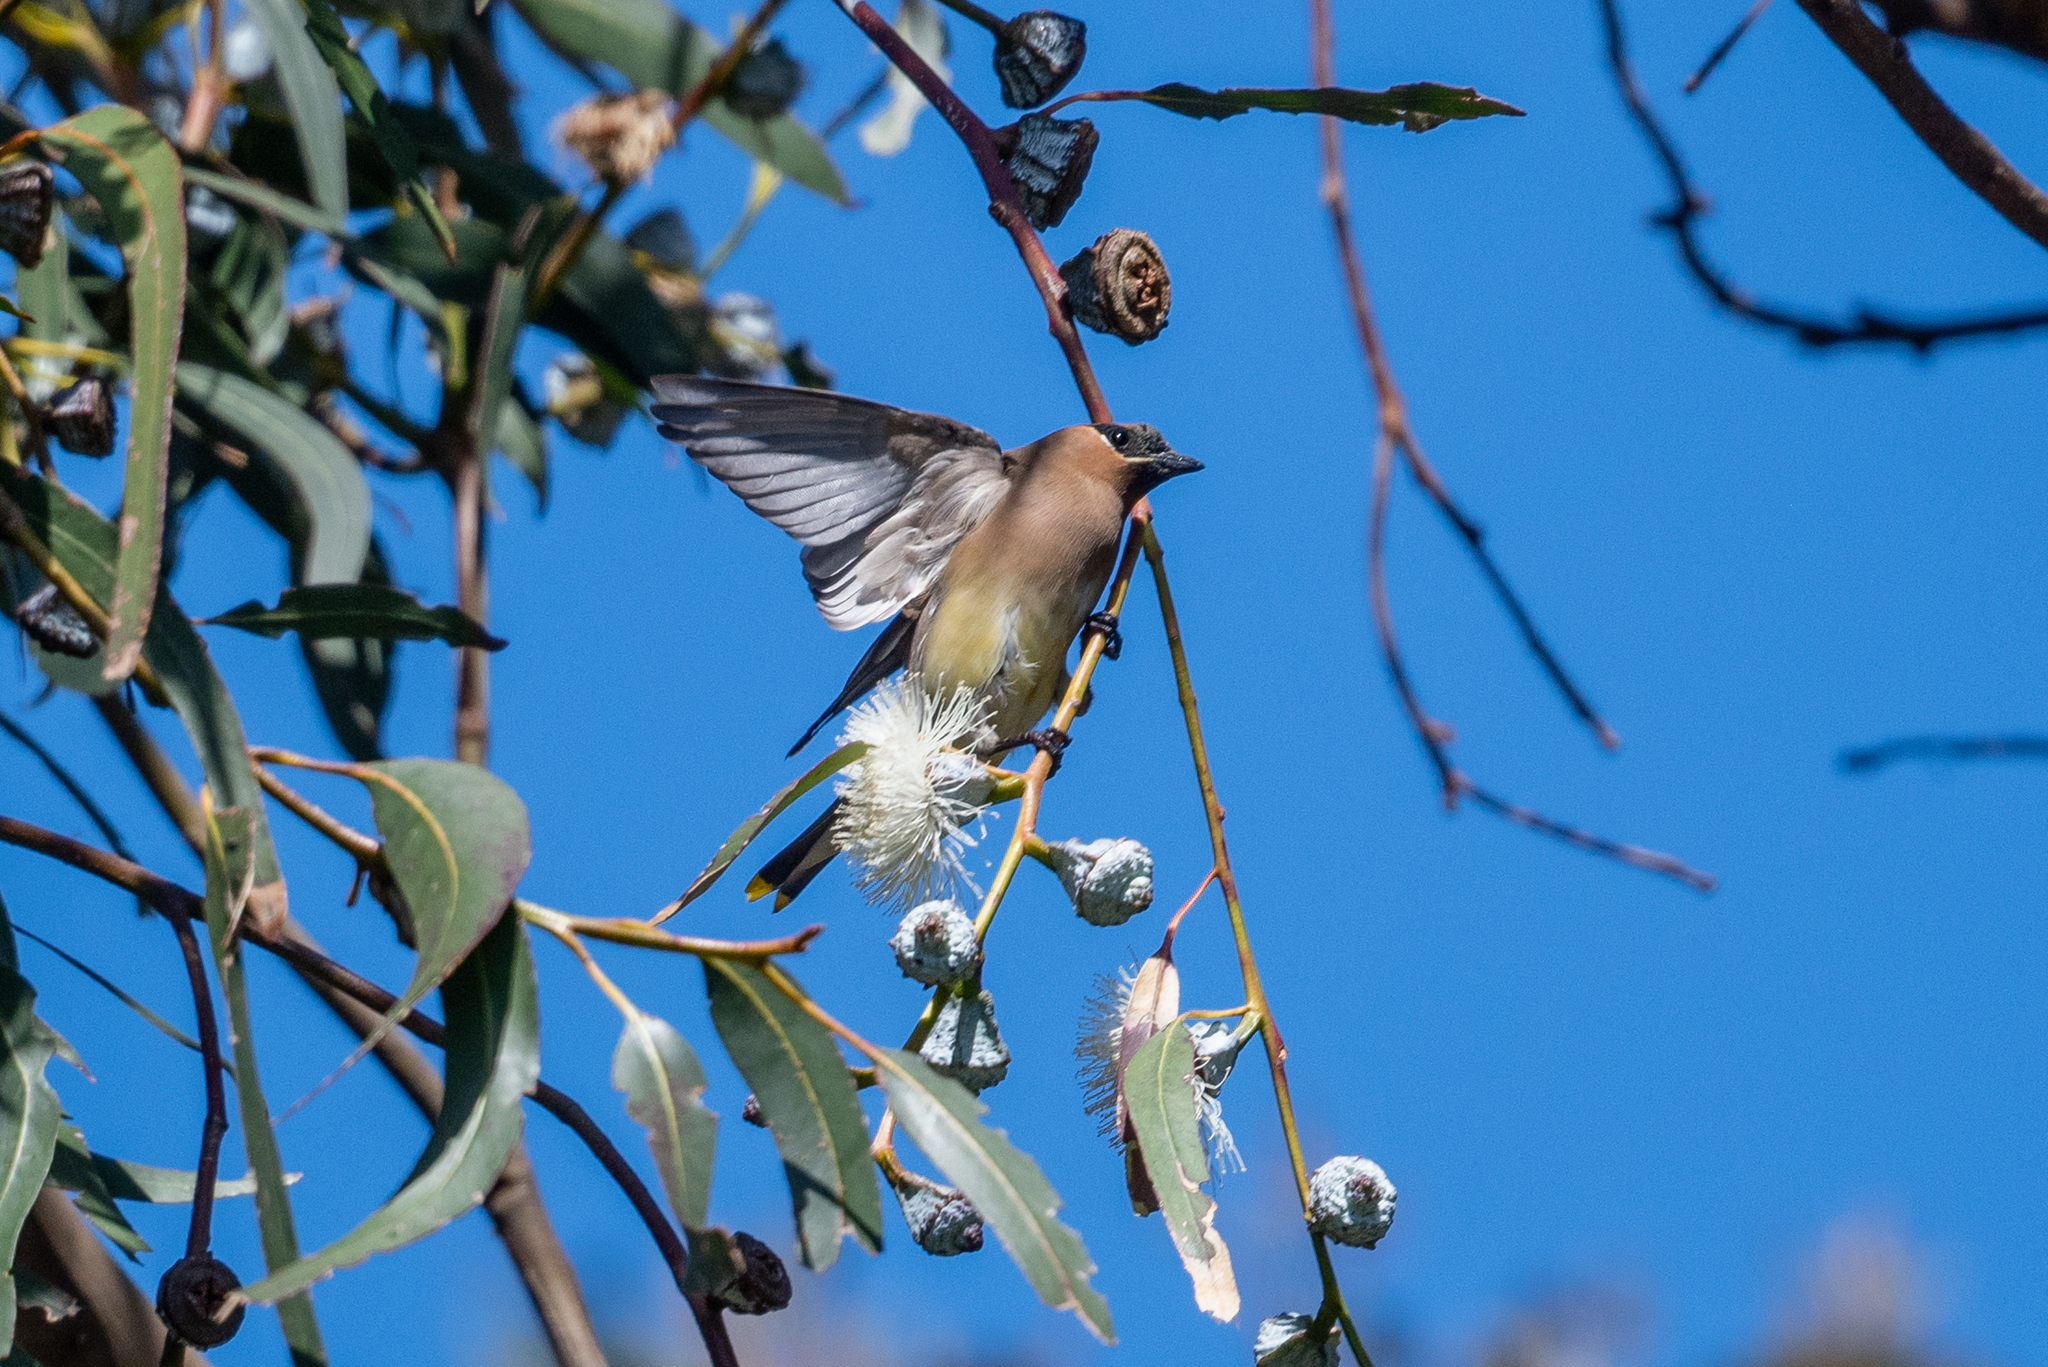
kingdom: Animalia
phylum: Chordata
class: Aves
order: Passeriformes
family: Bombycillidae
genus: Bombycilla
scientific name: Bombycilla cedrorum
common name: Cedar waxwing
